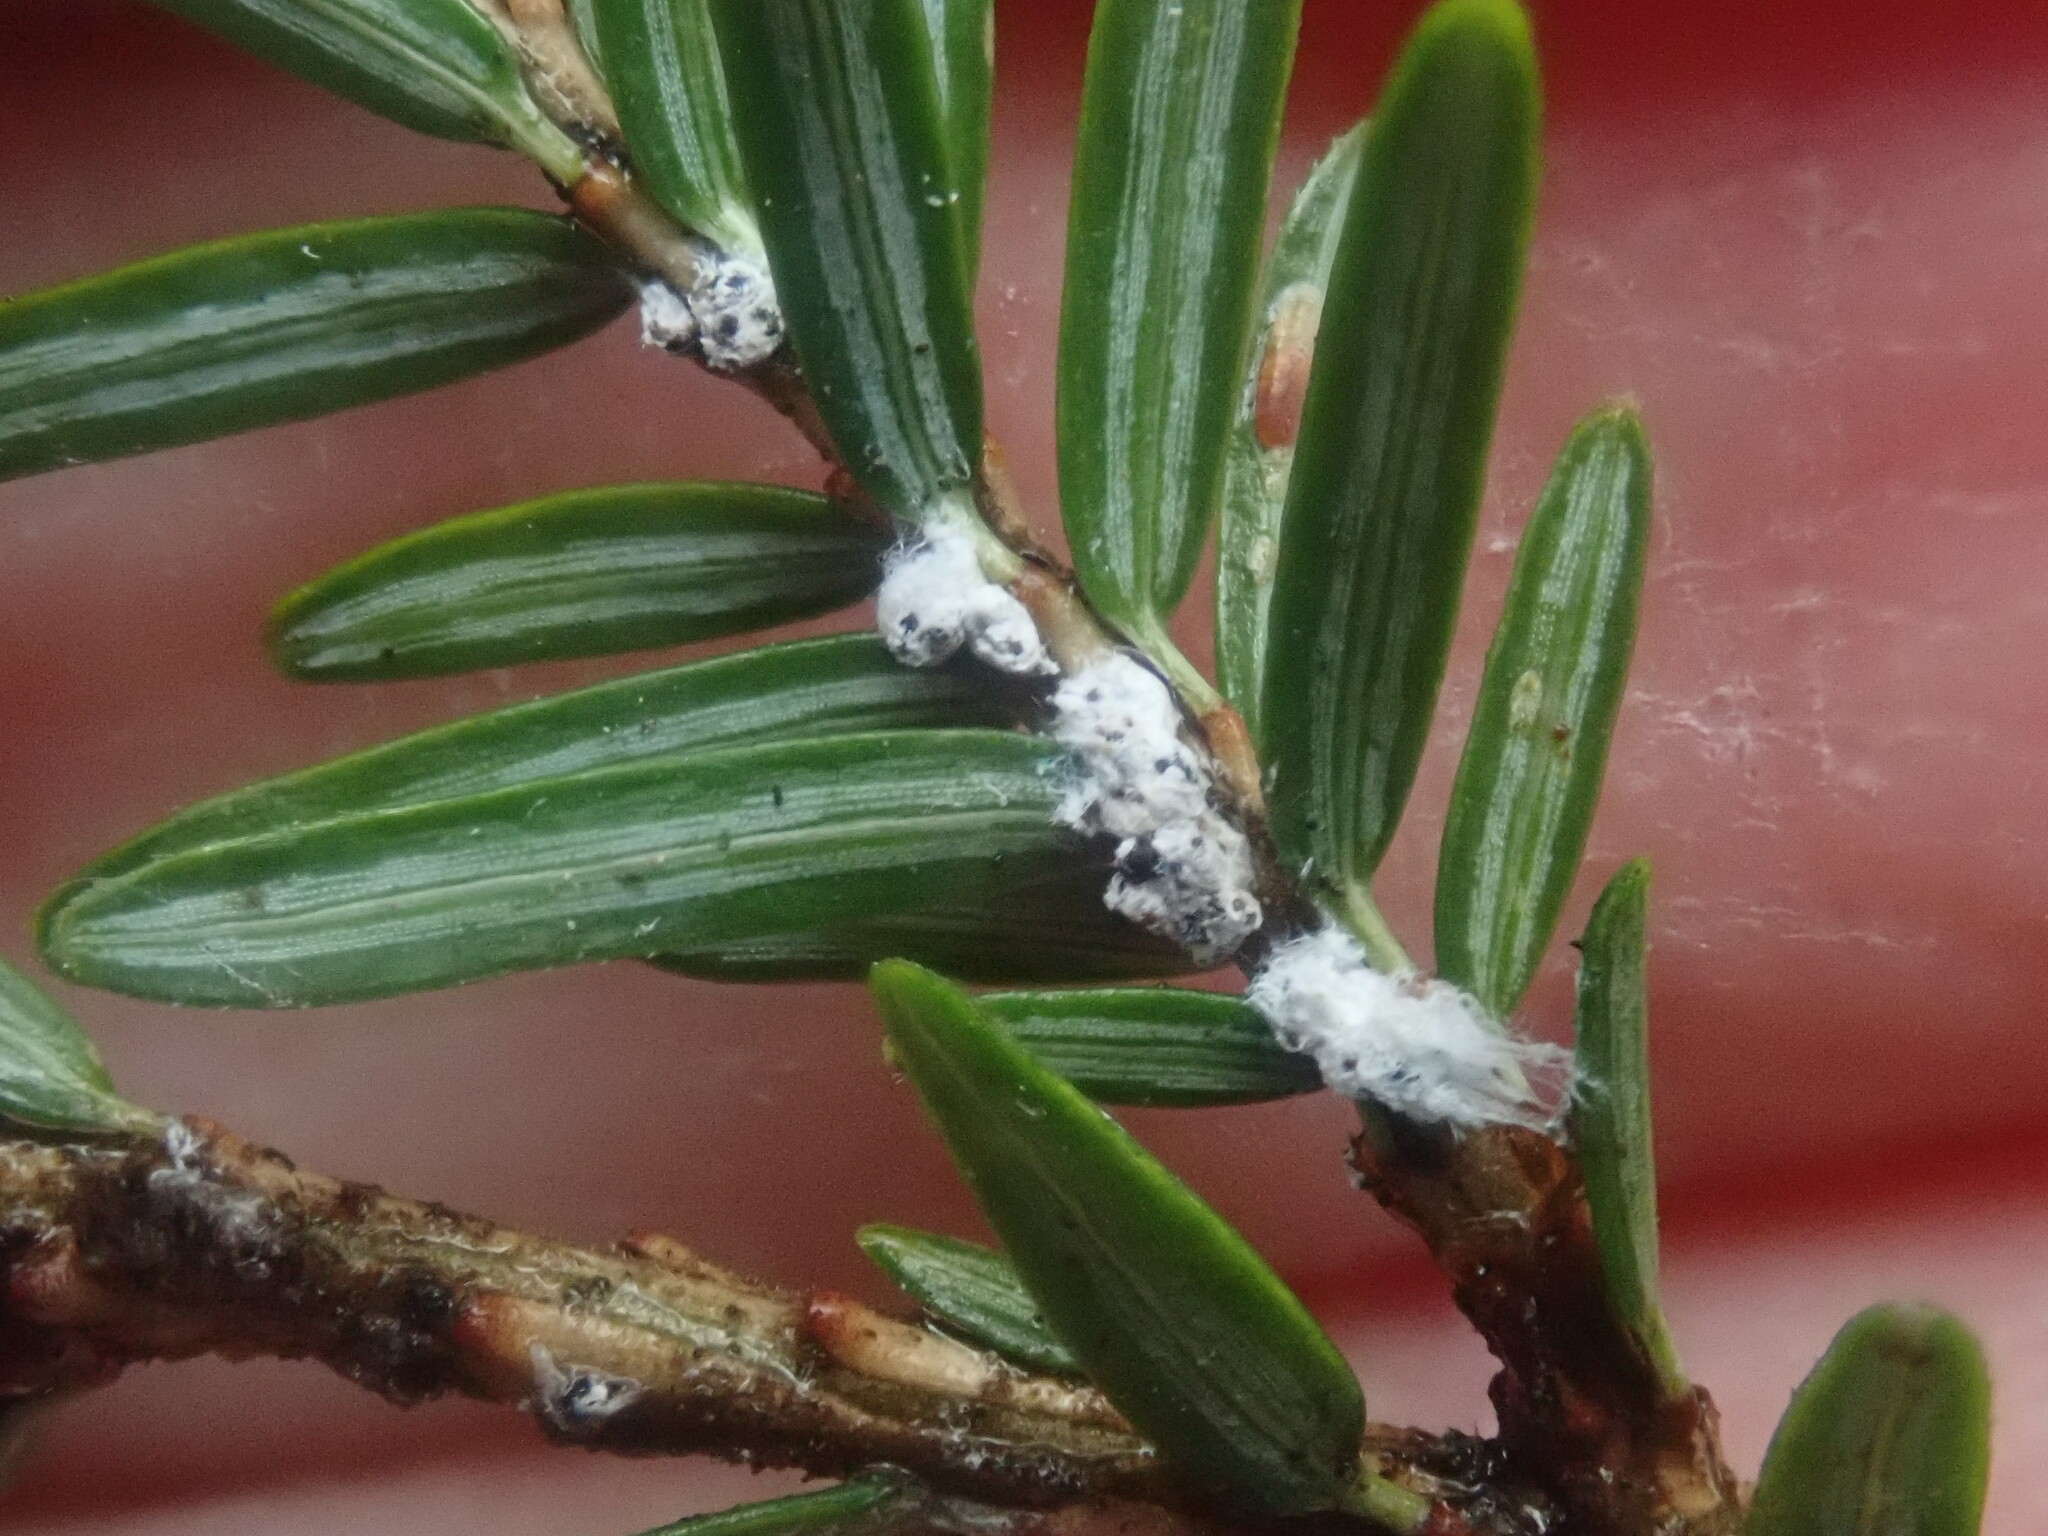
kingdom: Animalia
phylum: Arthropoda
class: Insecta
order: Hemiptera
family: Adelgidae
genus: Adelges
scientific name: Adelges tsugae
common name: Hemlock woolly adelgid
